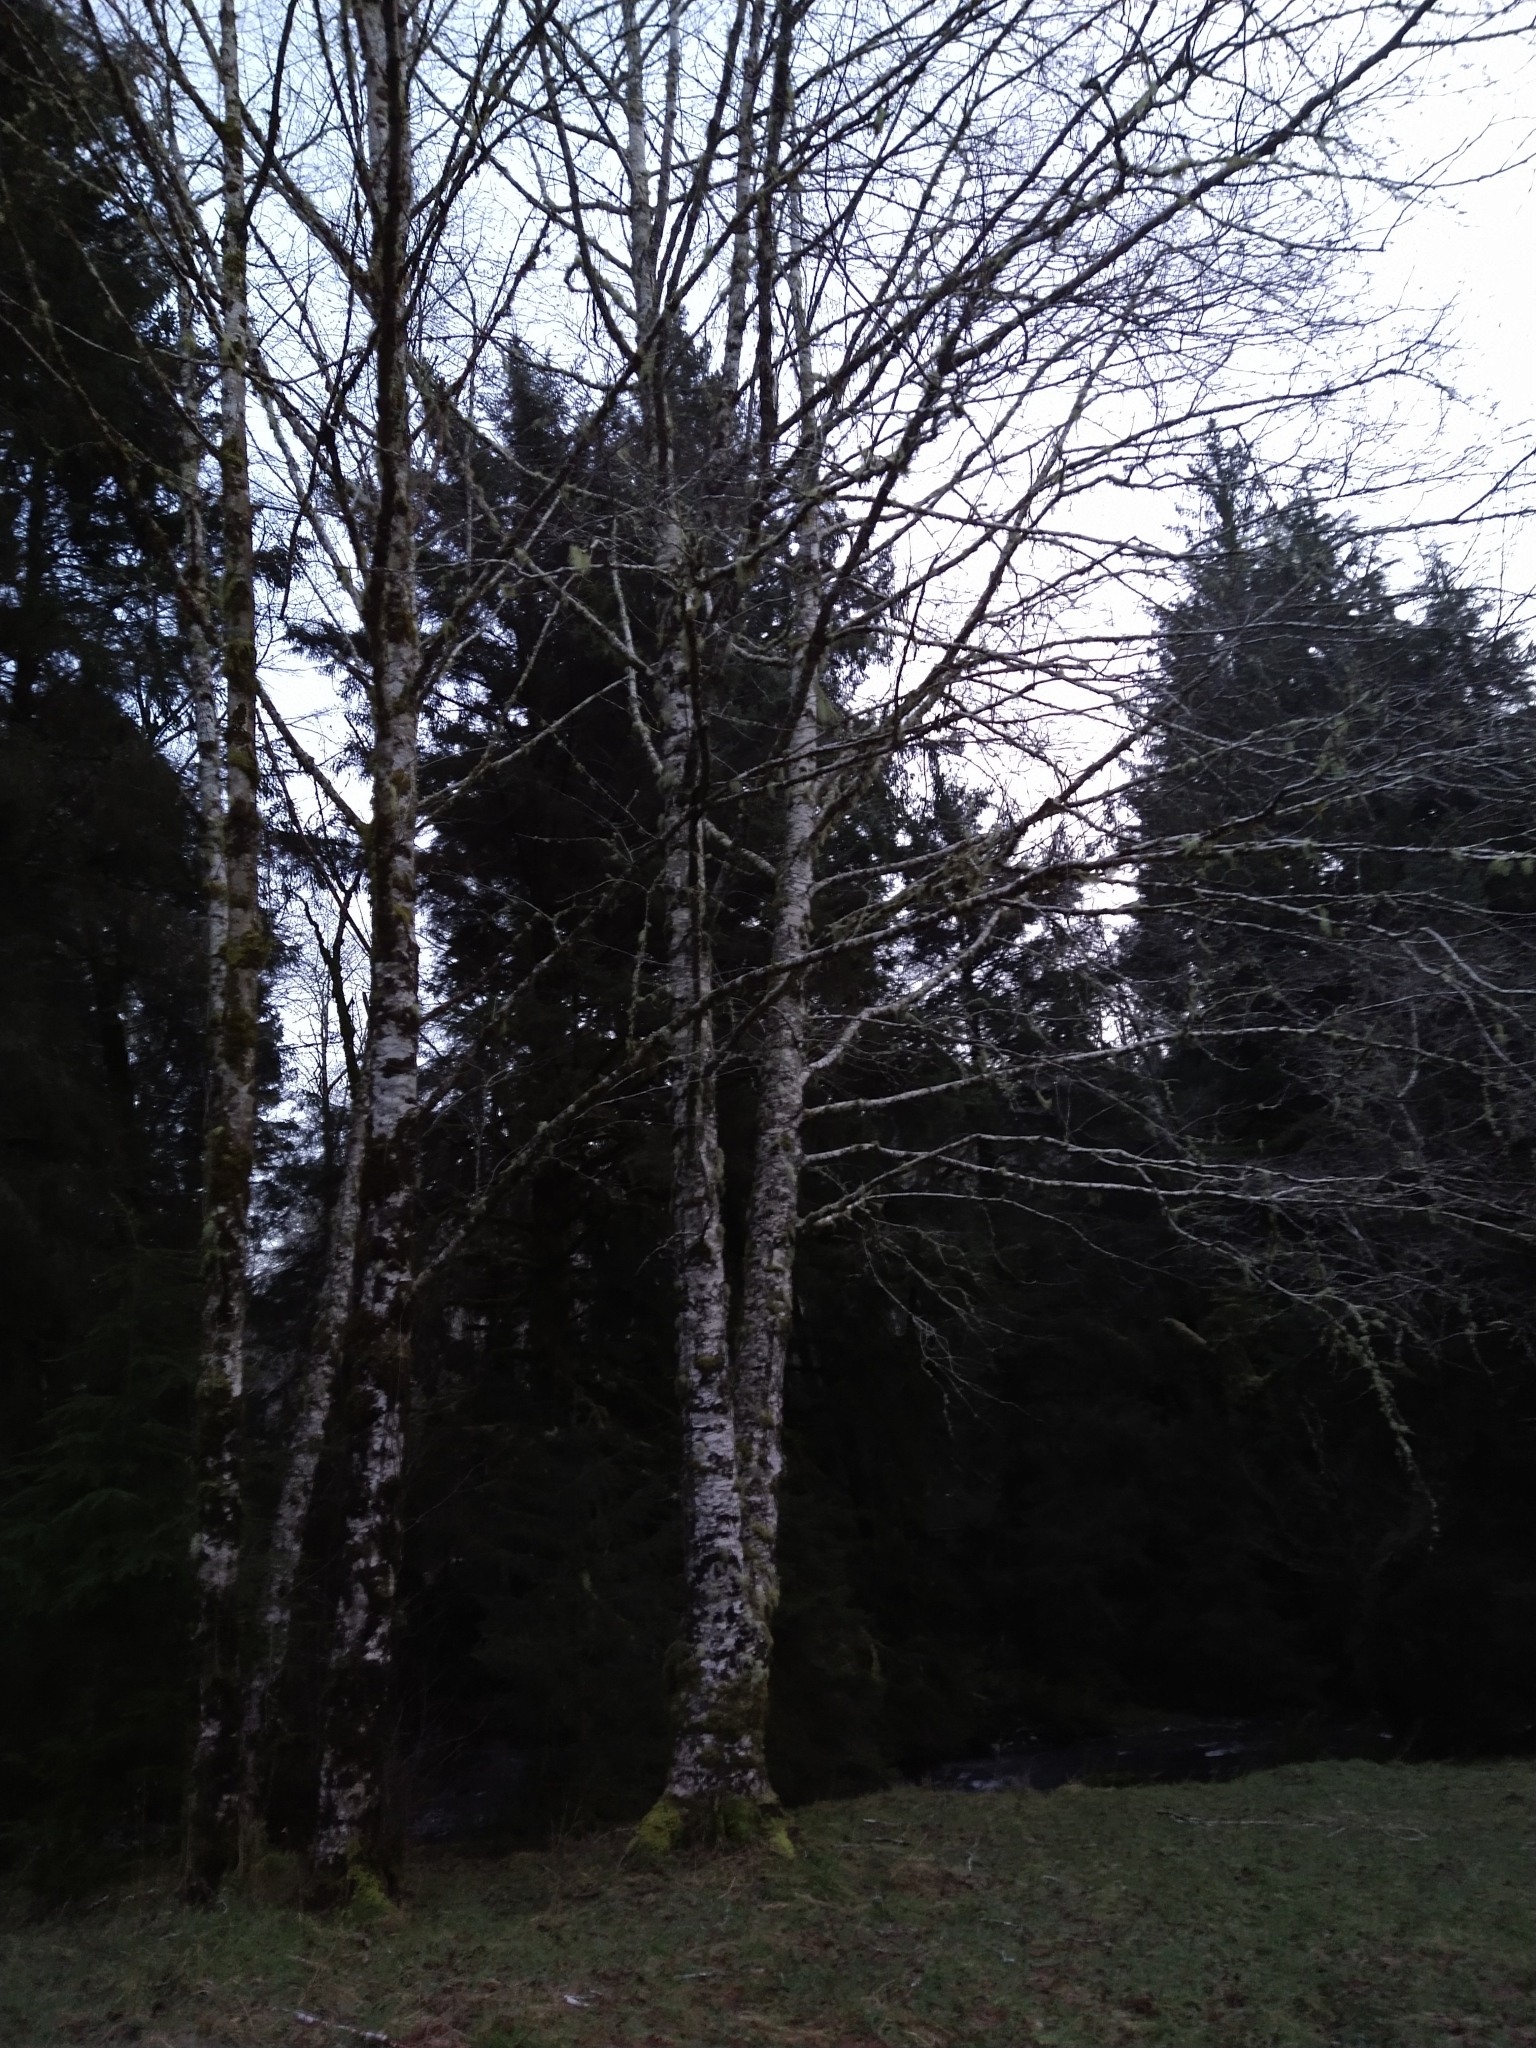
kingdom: Plantae
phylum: Tracheophyta
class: Magnoliopsida
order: Fagales
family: Betulaceae
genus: Alnus
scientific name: Alnus rubra
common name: Red alder
